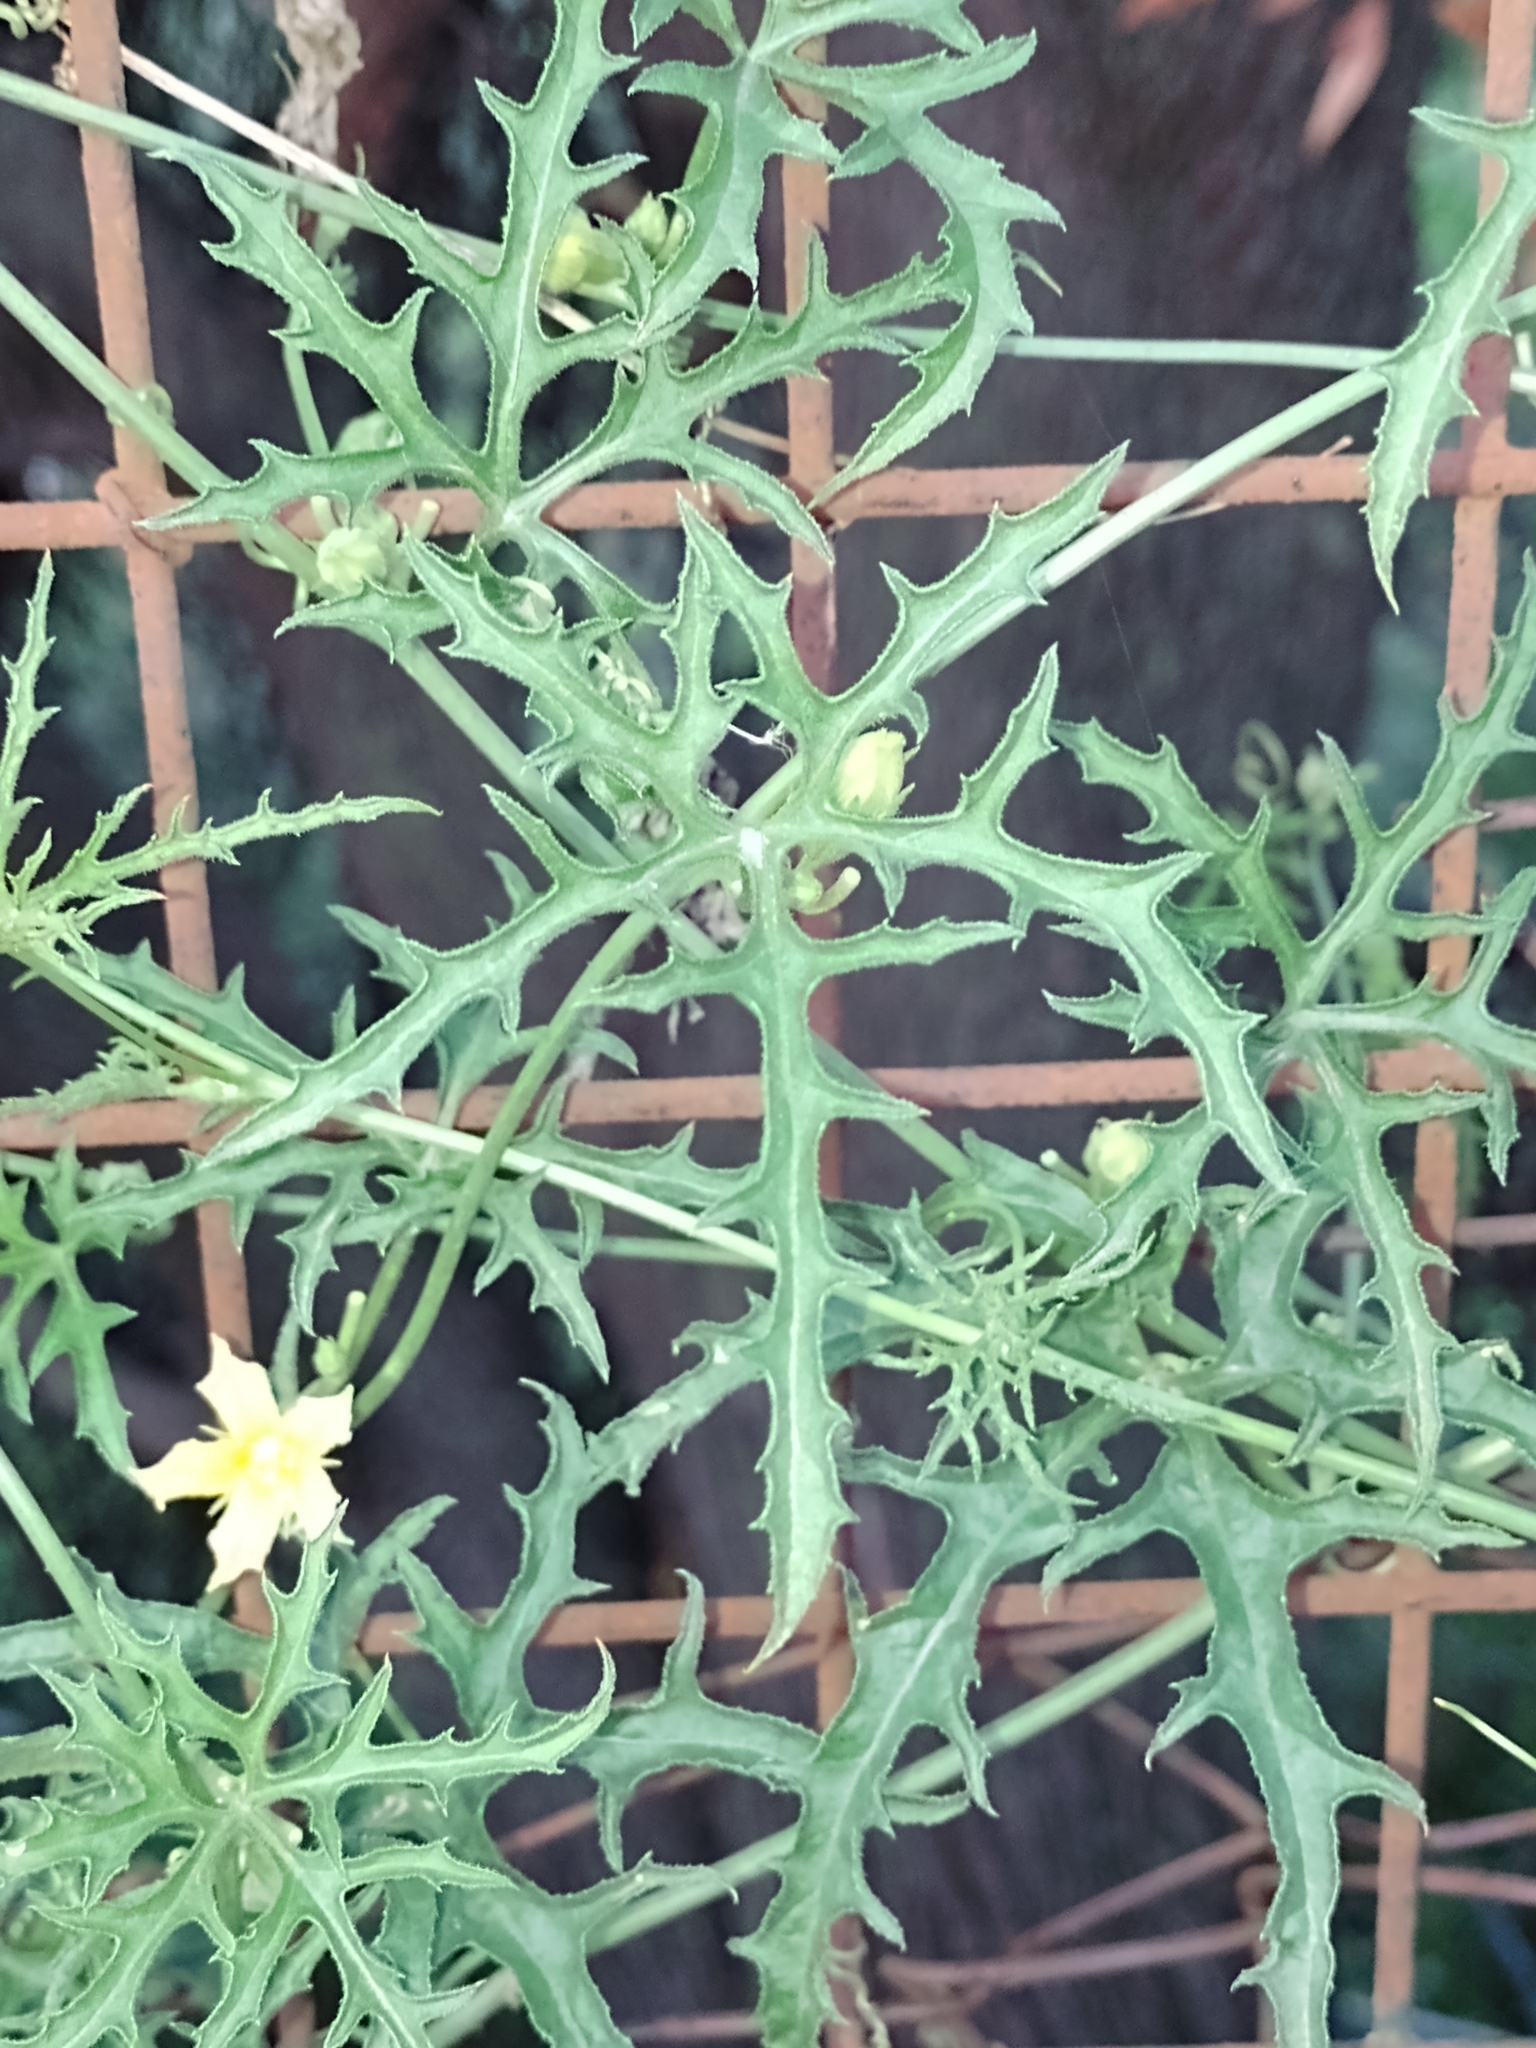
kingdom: Plantae
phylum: Tracheophyta
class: Magnoliopsida
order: Cucurbitales
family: Cucurbitaceae
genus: Cucurbitella
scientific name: Cucurbitella asperata
